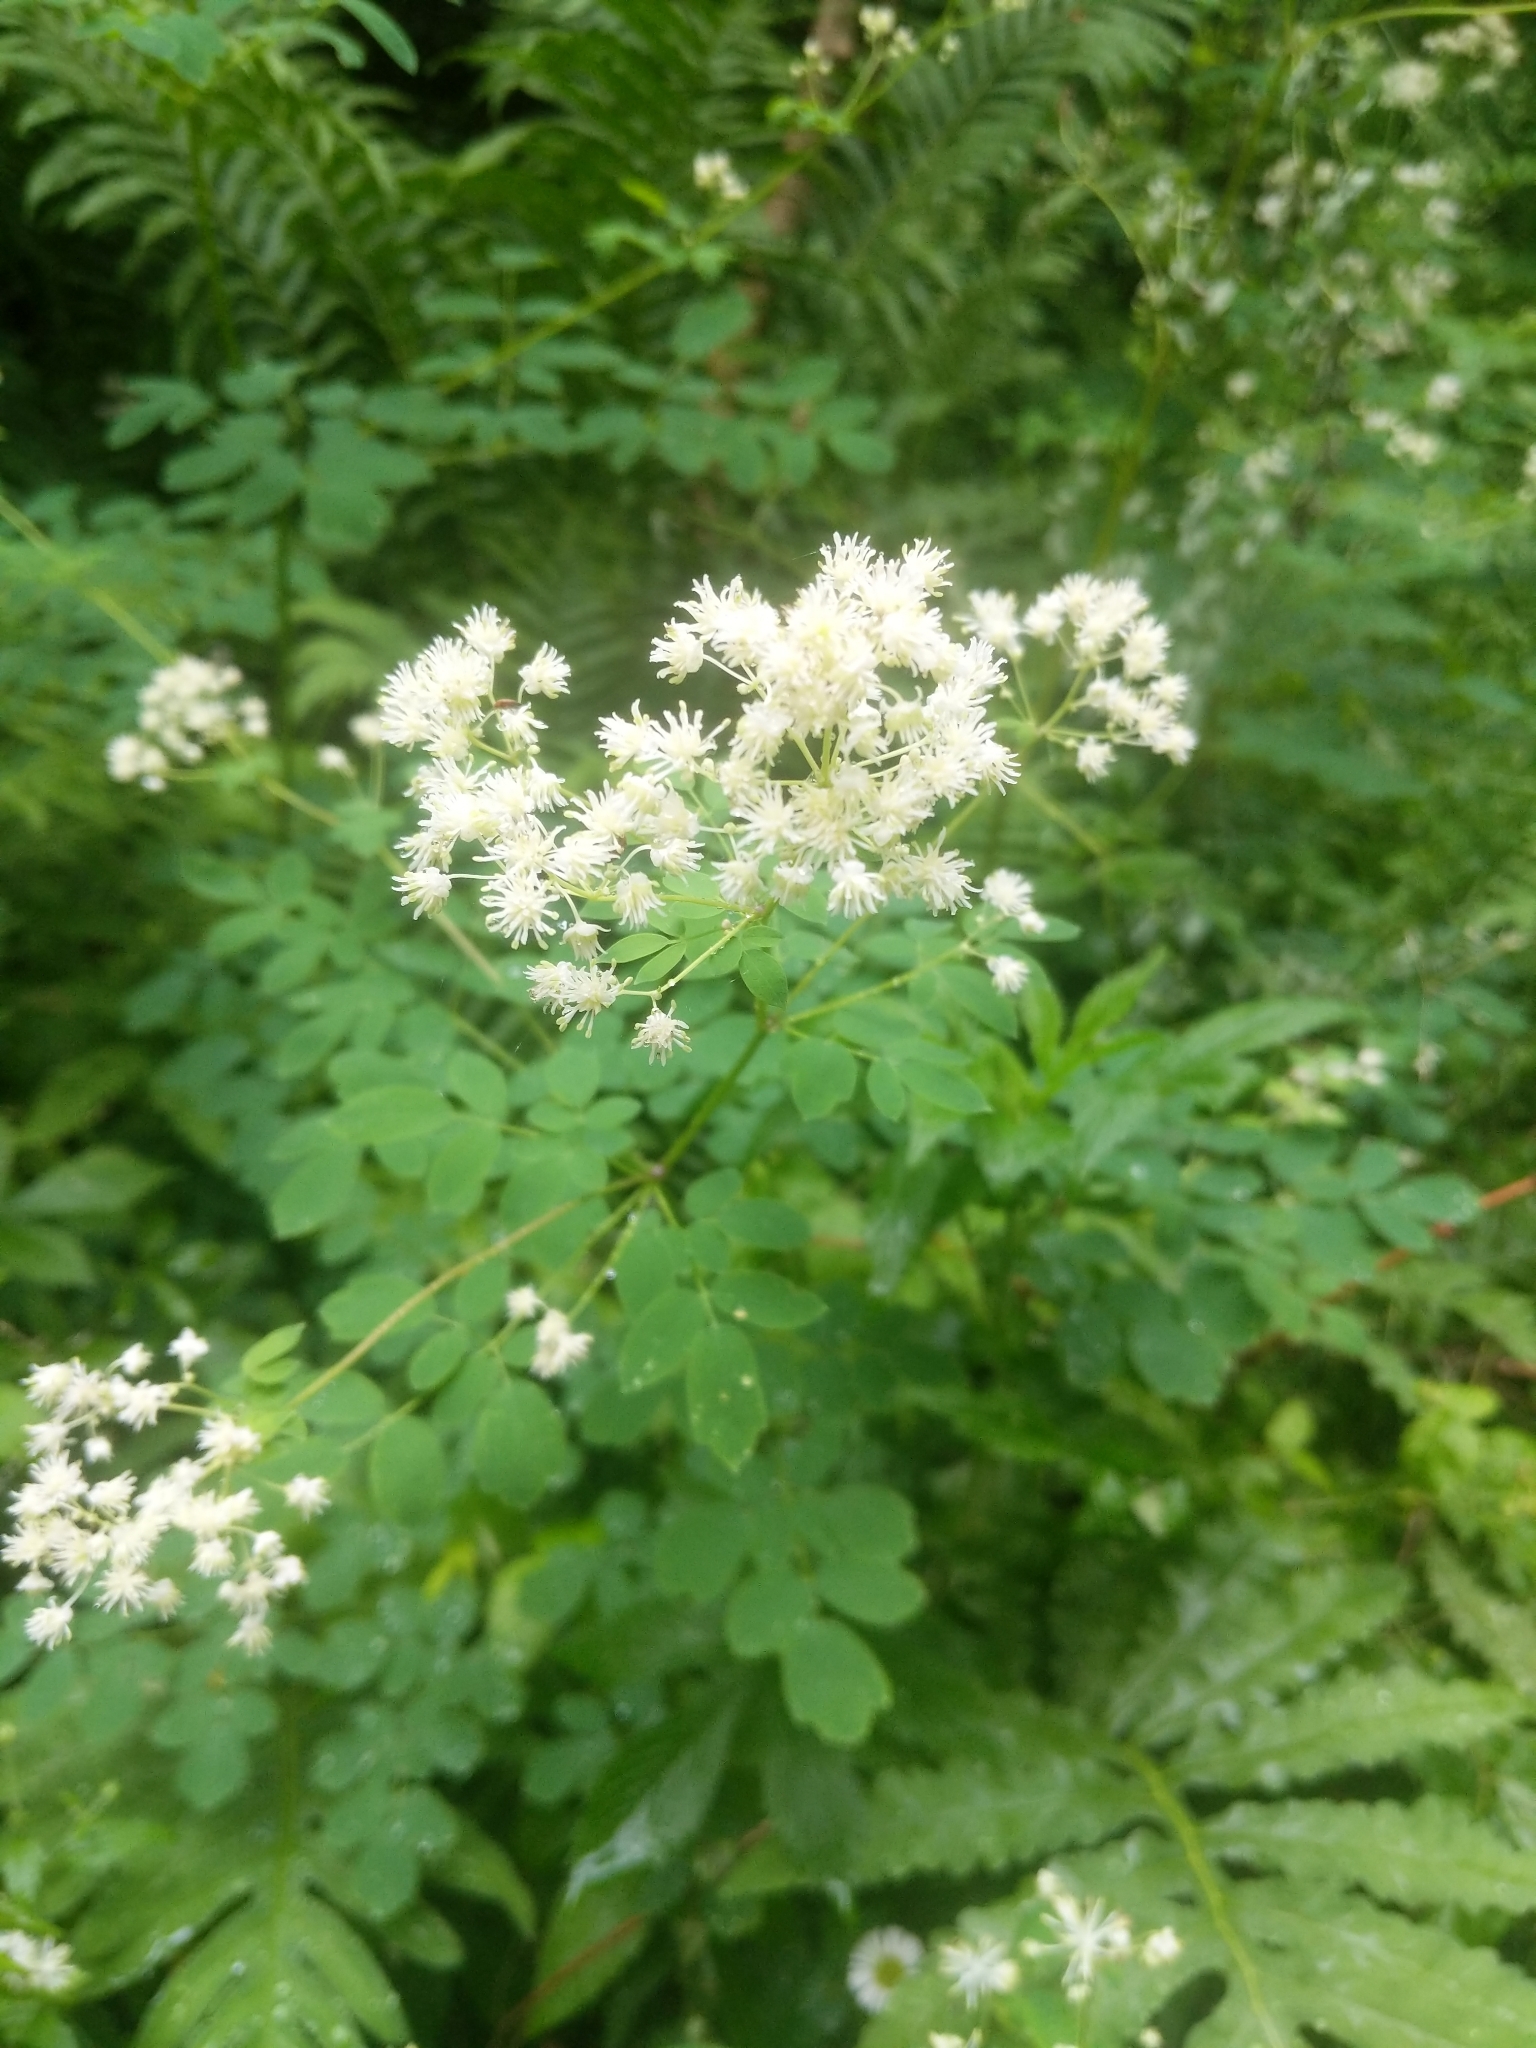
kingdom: Plantae
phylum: Tracheophyta
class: Magnoliopsida
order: Ranunculales
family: Ranunculaceae
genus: Thalictrum
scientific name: Thalictrum pubescens
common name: King-of-the-meadow
